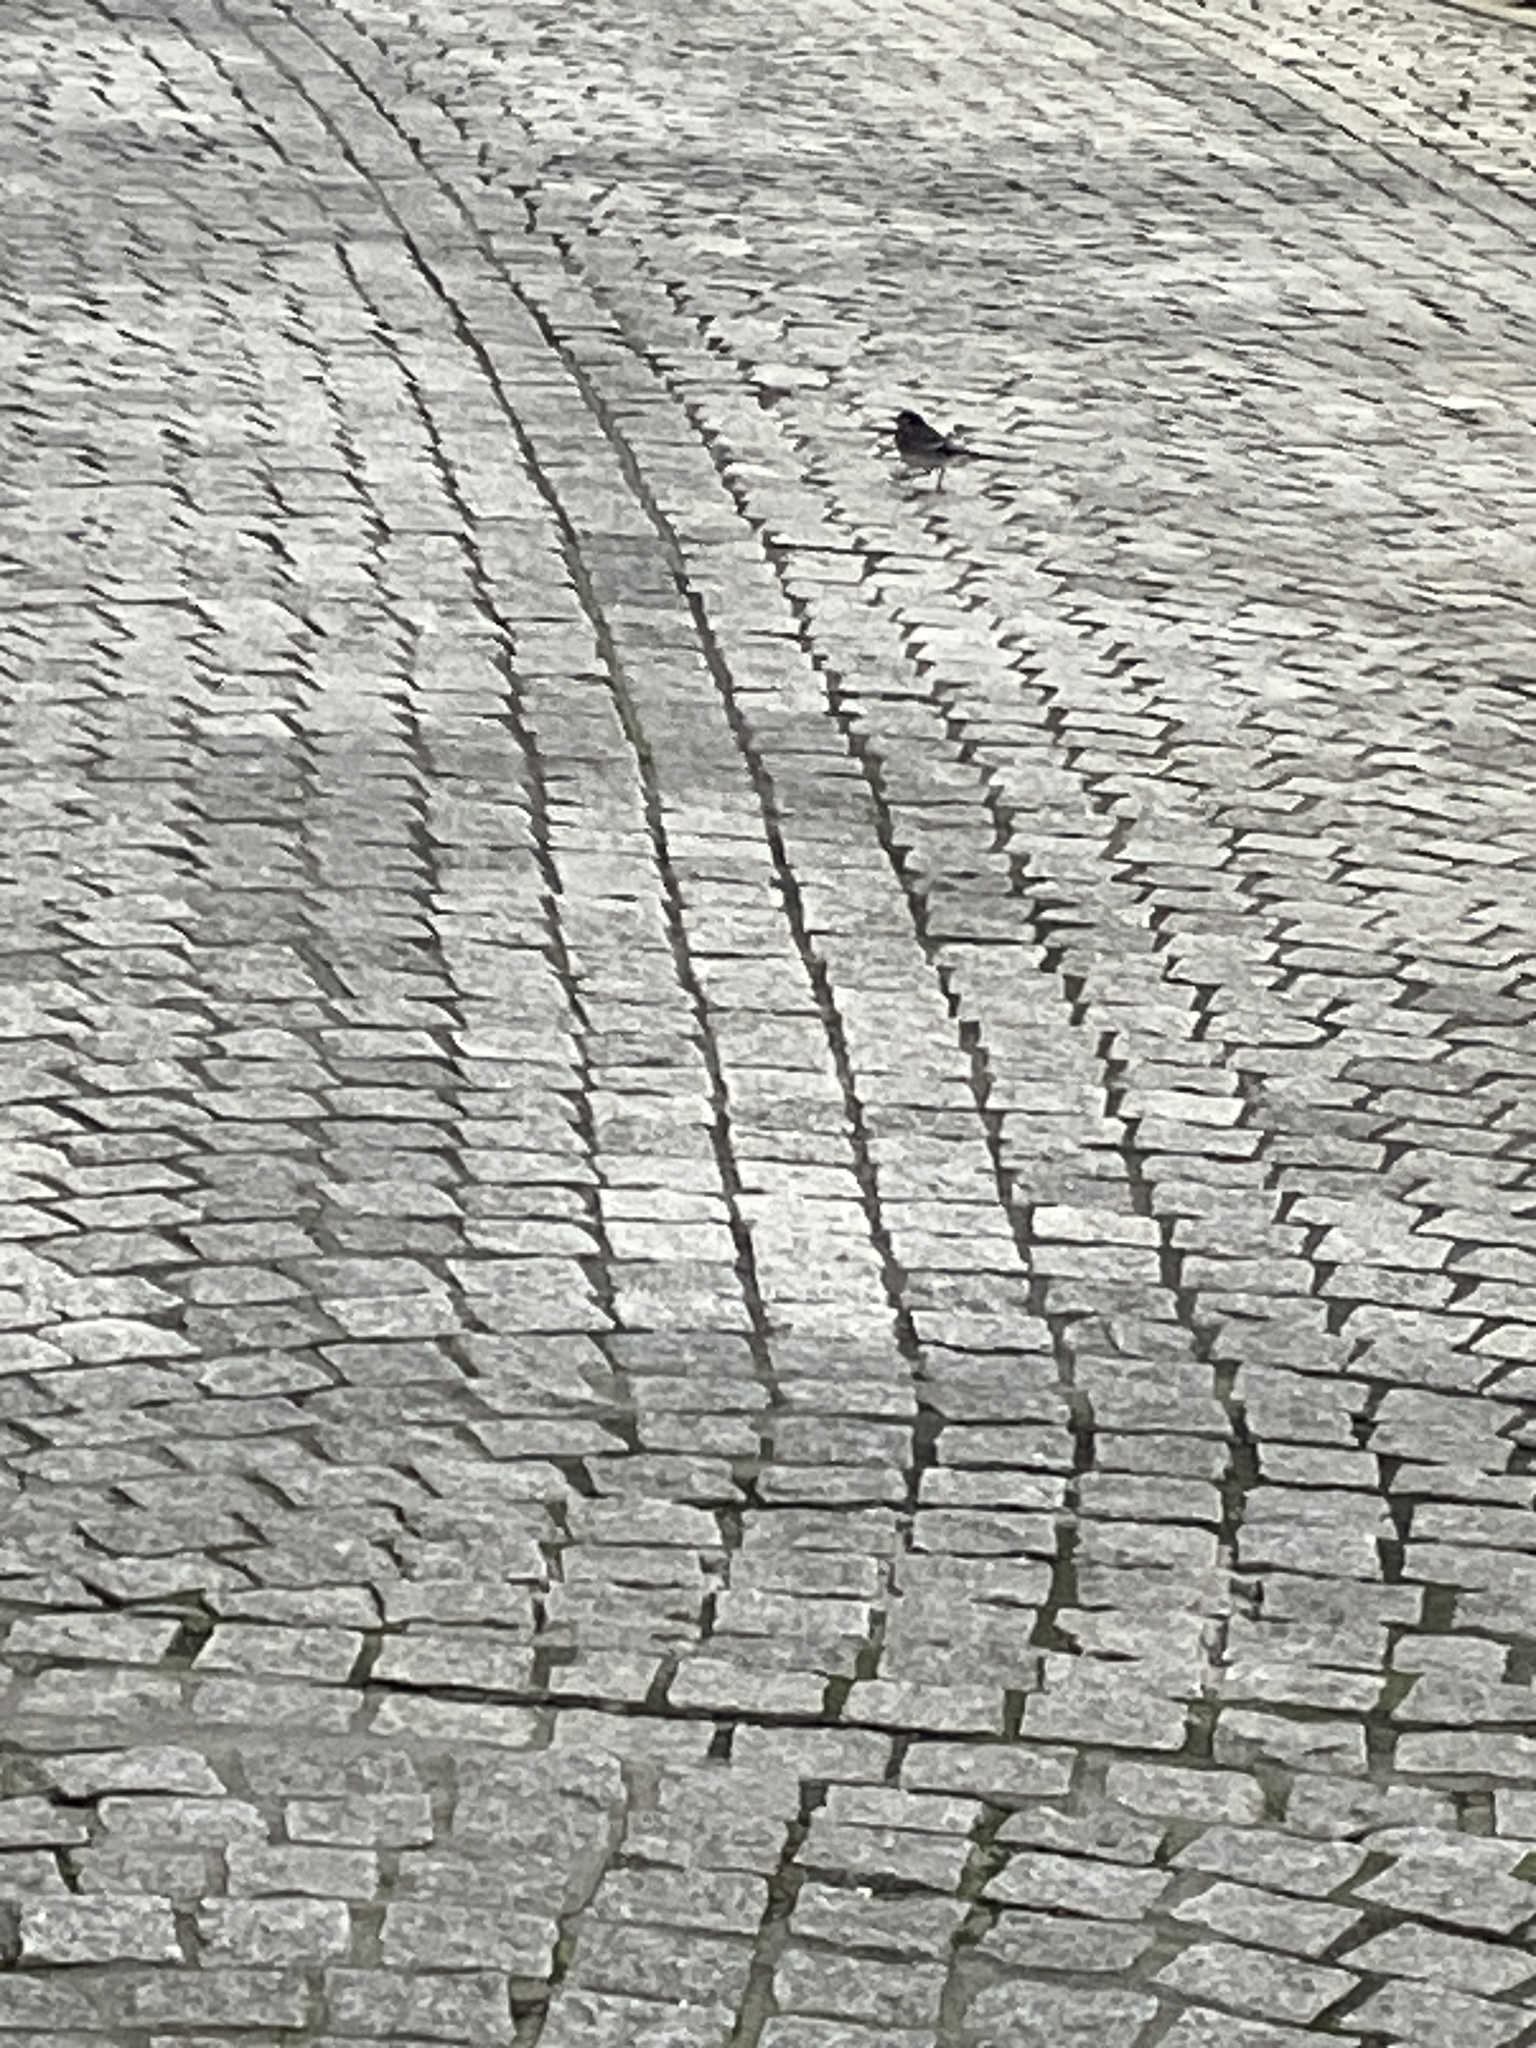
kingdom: Animalia
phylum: Chordata
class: Aves
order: Passeriformes
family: Motacillidae
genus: Motacilla
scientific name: Motacilla alba
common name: White wagtail
